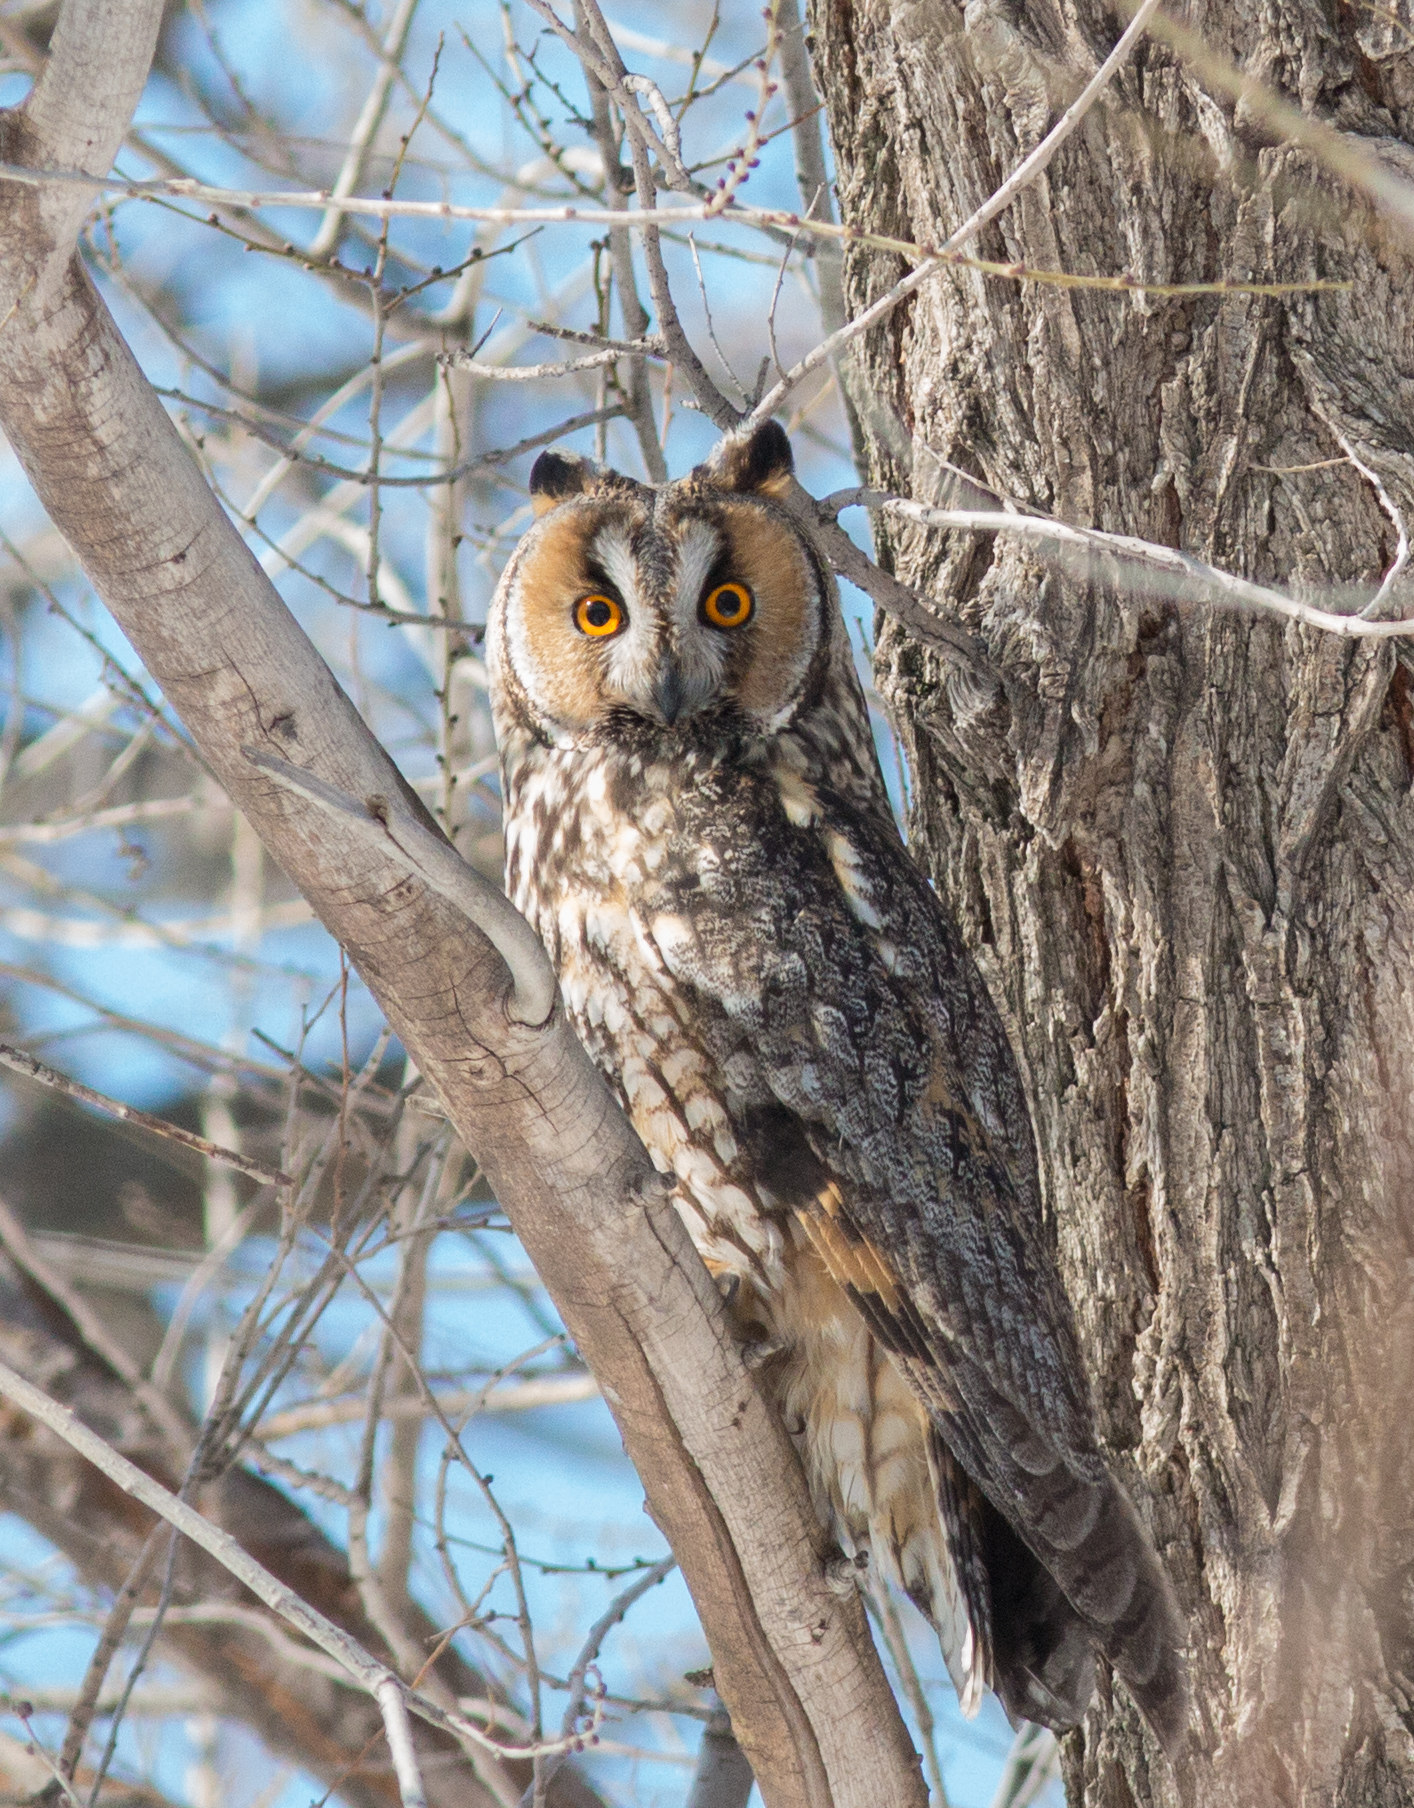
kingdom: Animalia
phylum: Chordata
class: Aves
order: Strigiformes
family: Strigidae
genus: Asio
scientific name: Asio otus
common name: Long-eared owl
